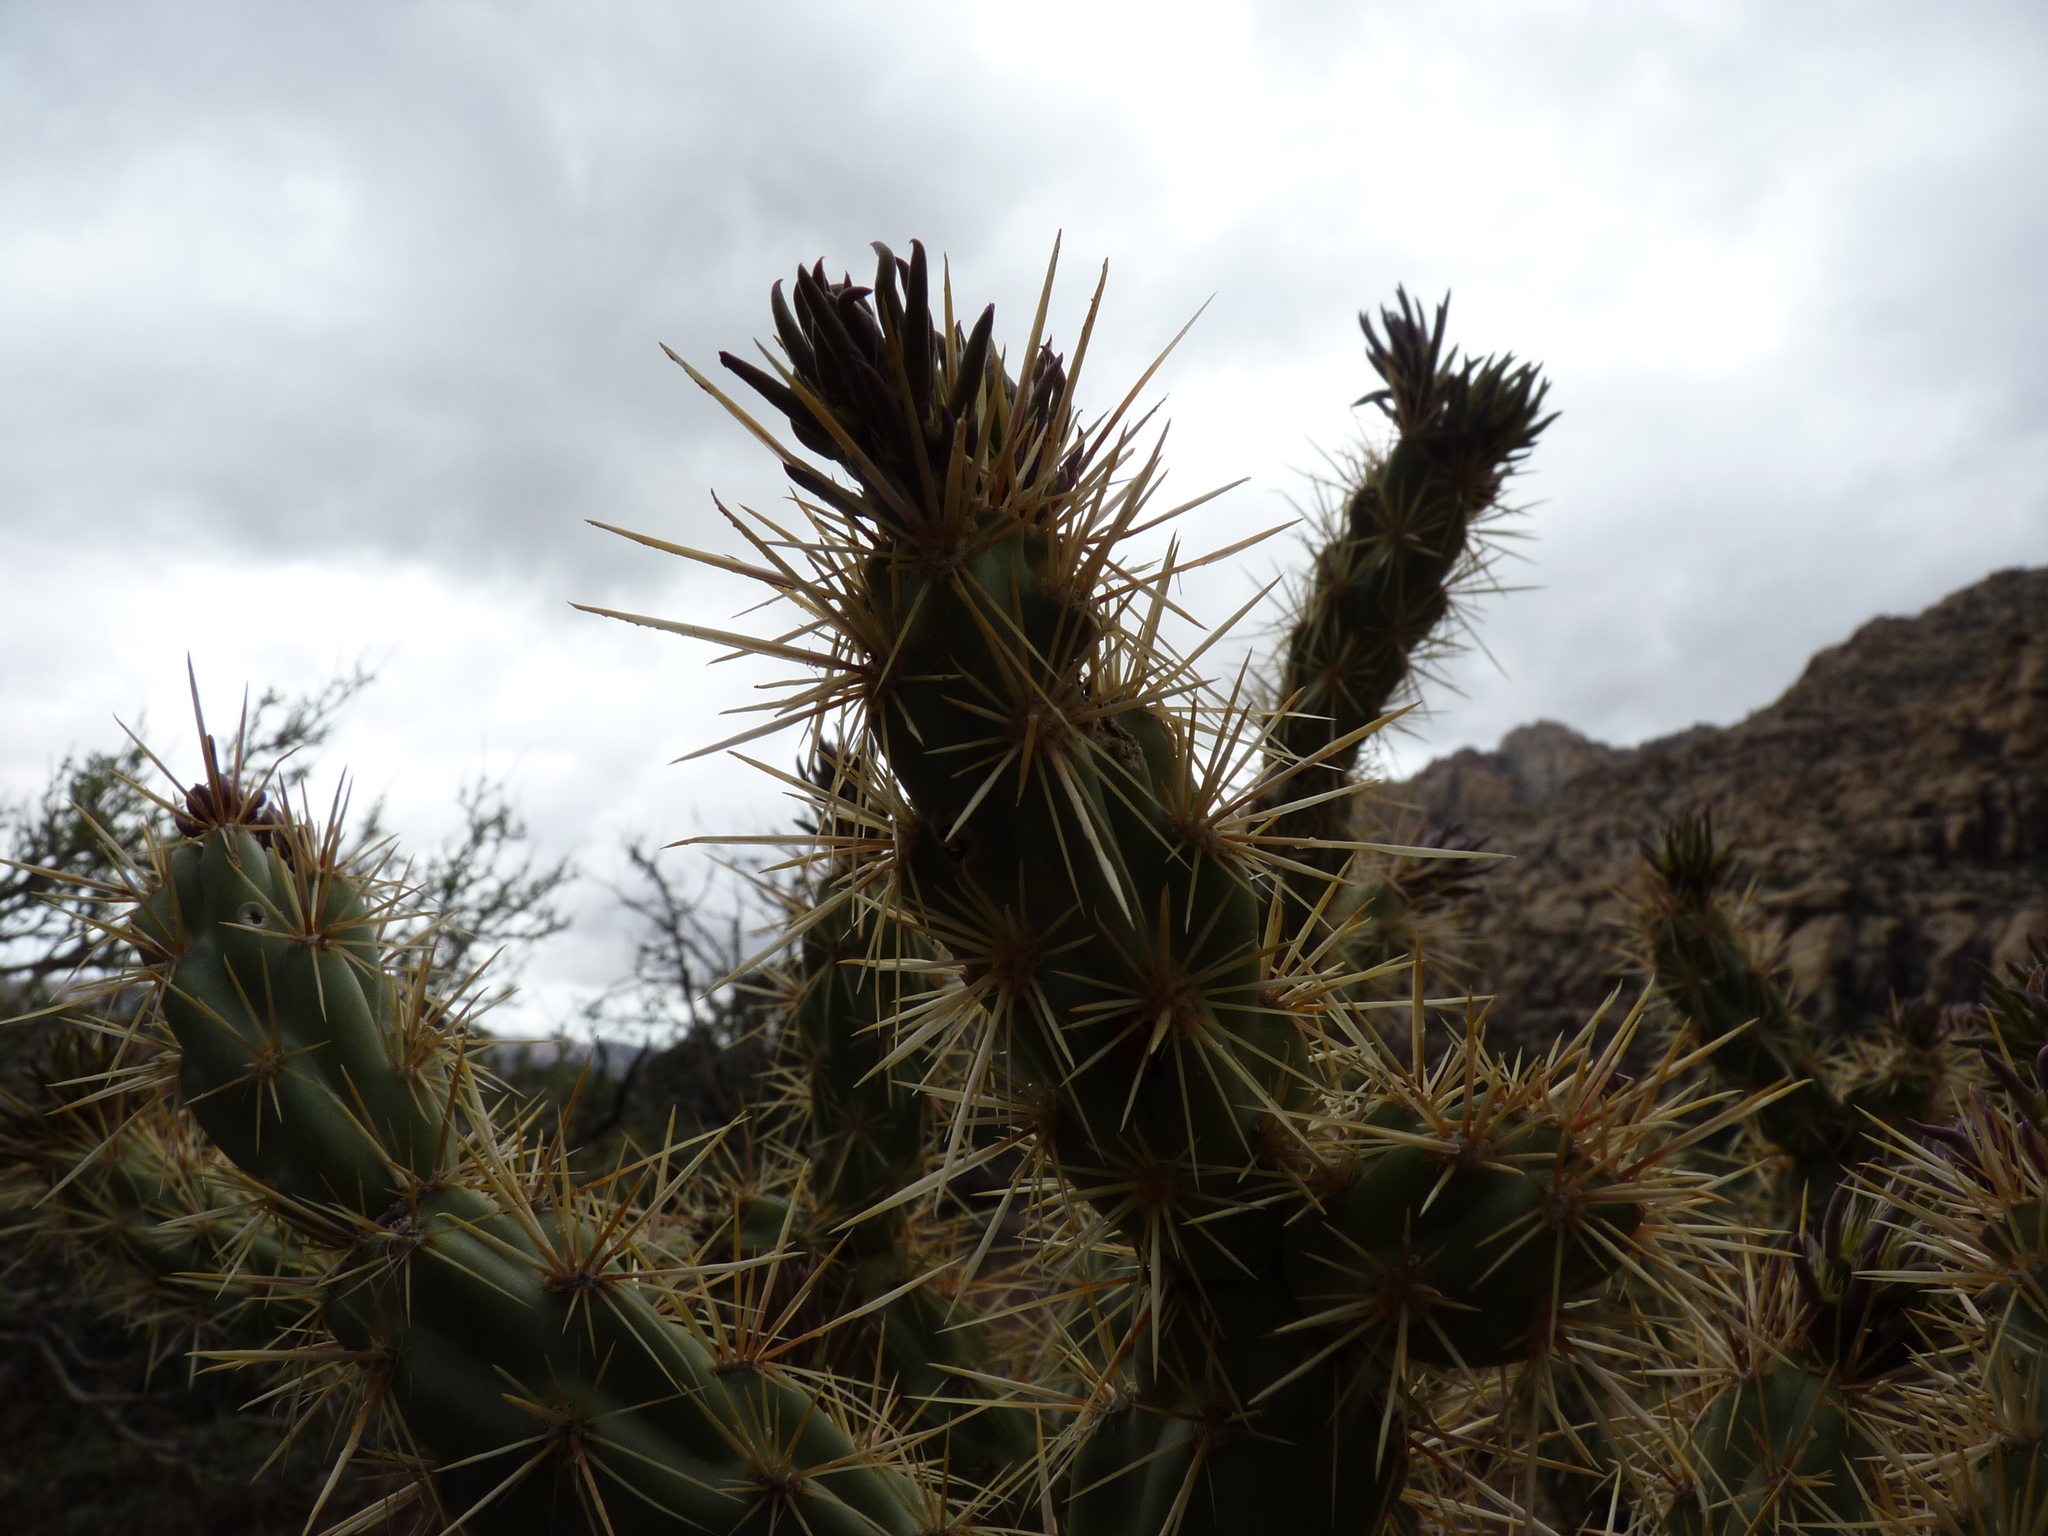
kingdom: Plantae
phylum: Tracheophyta
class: Magnoliopsida
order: Caryophyllales
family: Cactaceae
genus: Cylindropuntia
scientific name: Cylindropuntia acanthocarpa
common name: Buckhorn cholla
